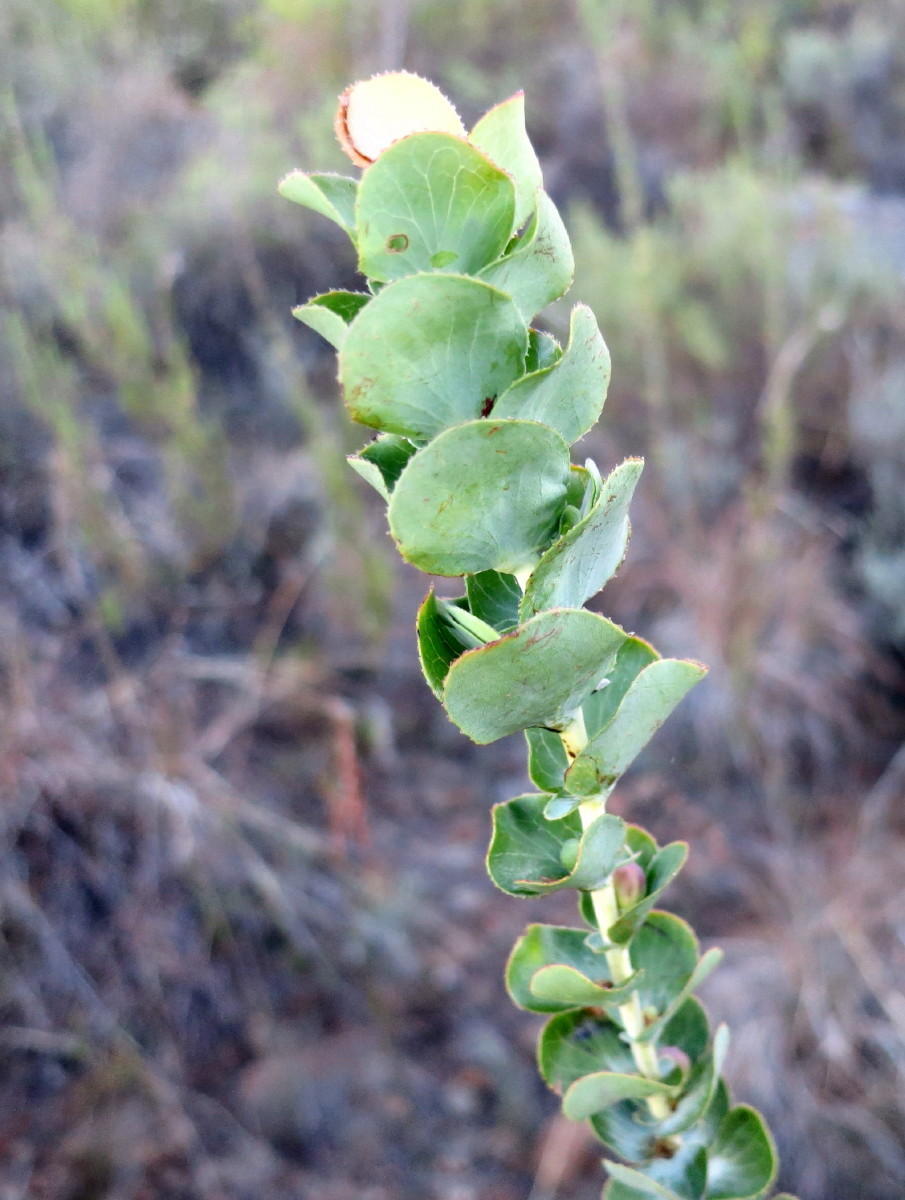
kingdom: Plantae
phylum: Tracheophyta
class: Magnoliopsida
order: Rosales
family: Rosaceae
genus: Cliffortia
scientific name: Cliffortia crenata
